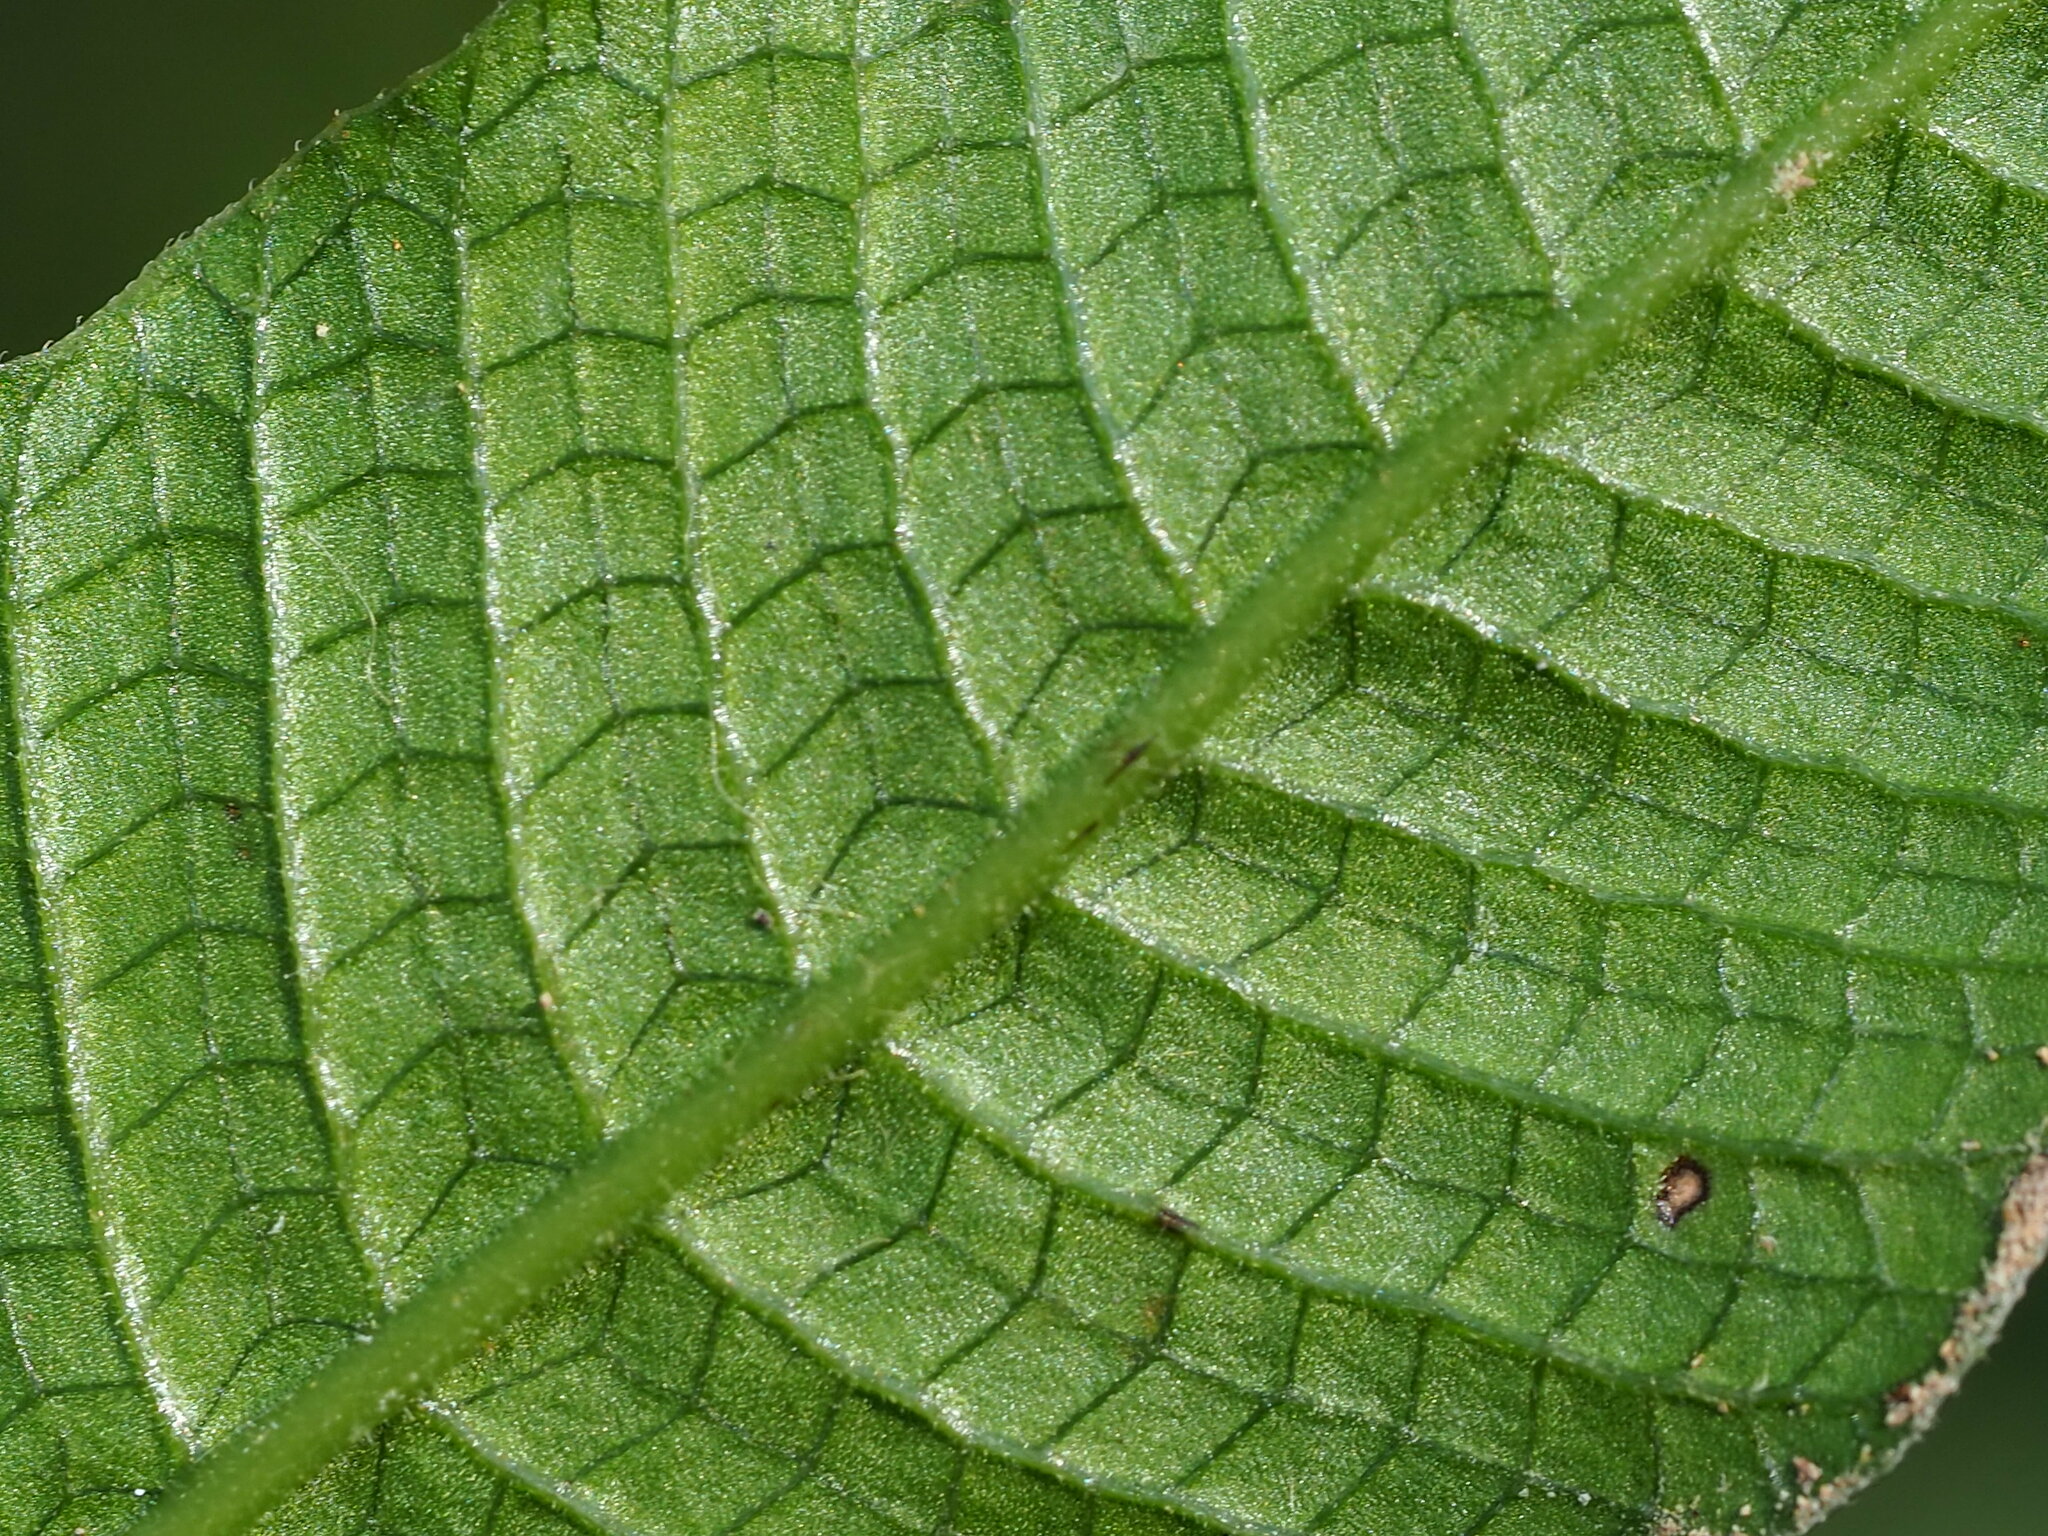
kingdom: Plantae
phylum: Tracheophyta
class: Polypodiopsida
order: Polypodiales
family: Thelypteridaceae
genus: Grypothrix
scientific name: Grypothrix triphylla
